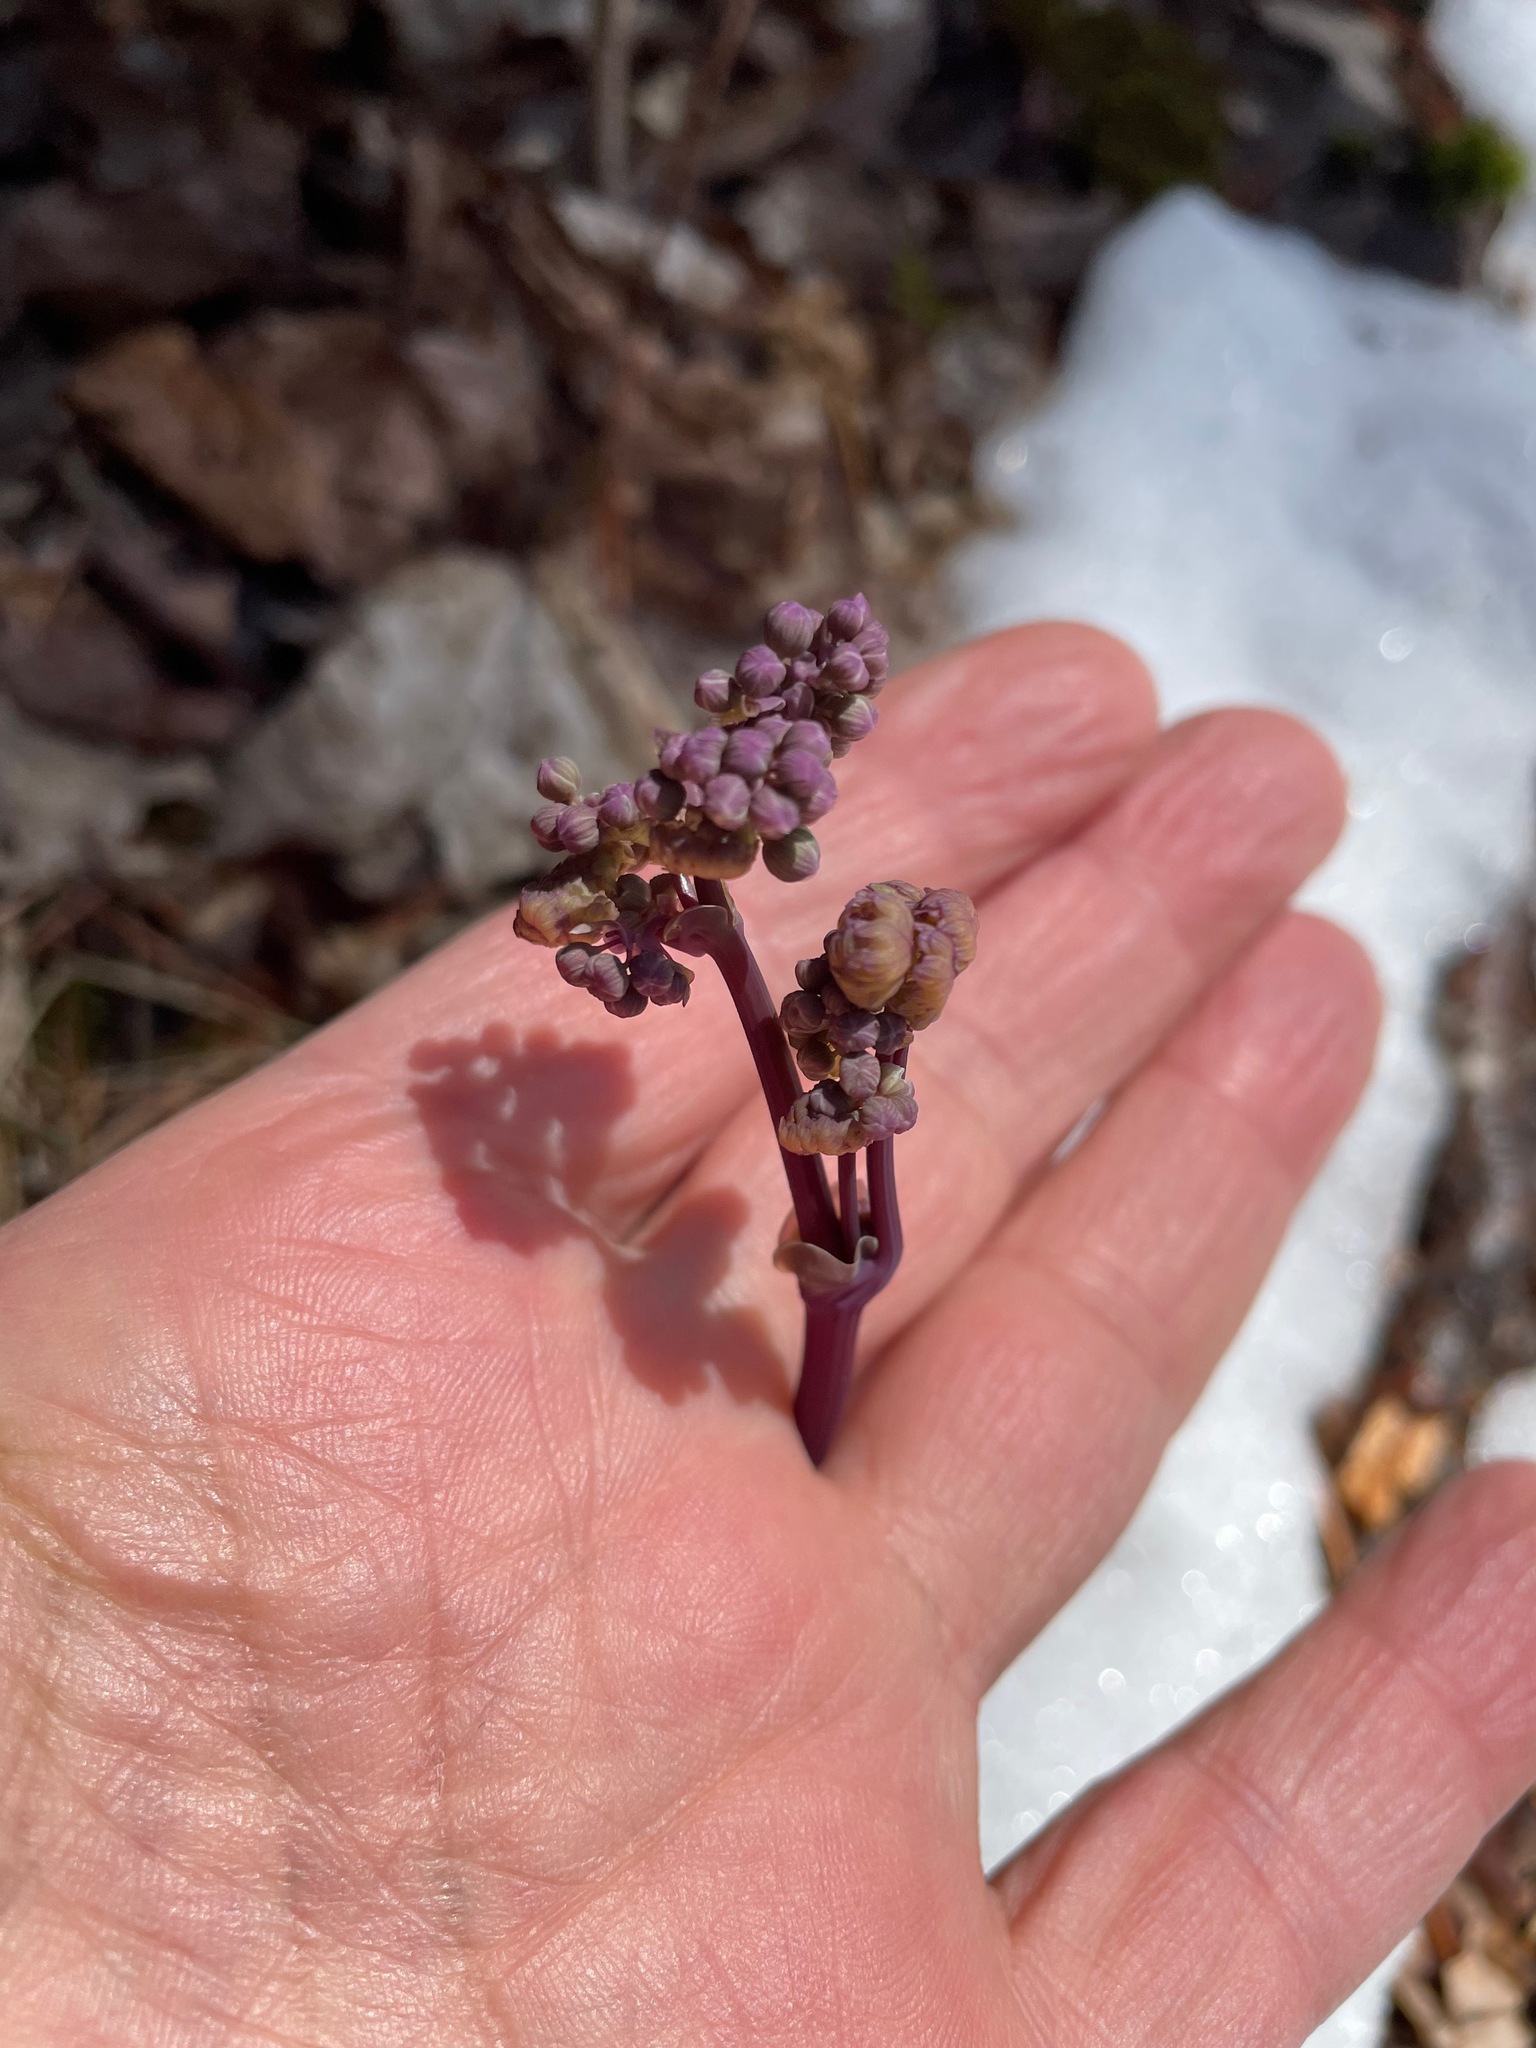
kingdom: Plantae
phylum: Tracheophyta
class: Magnoliopsida
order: Ranunculales
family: Ranunculaceae
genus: Thalictrum
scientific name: Thalictrum dioicum
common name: Early meadow-rue
